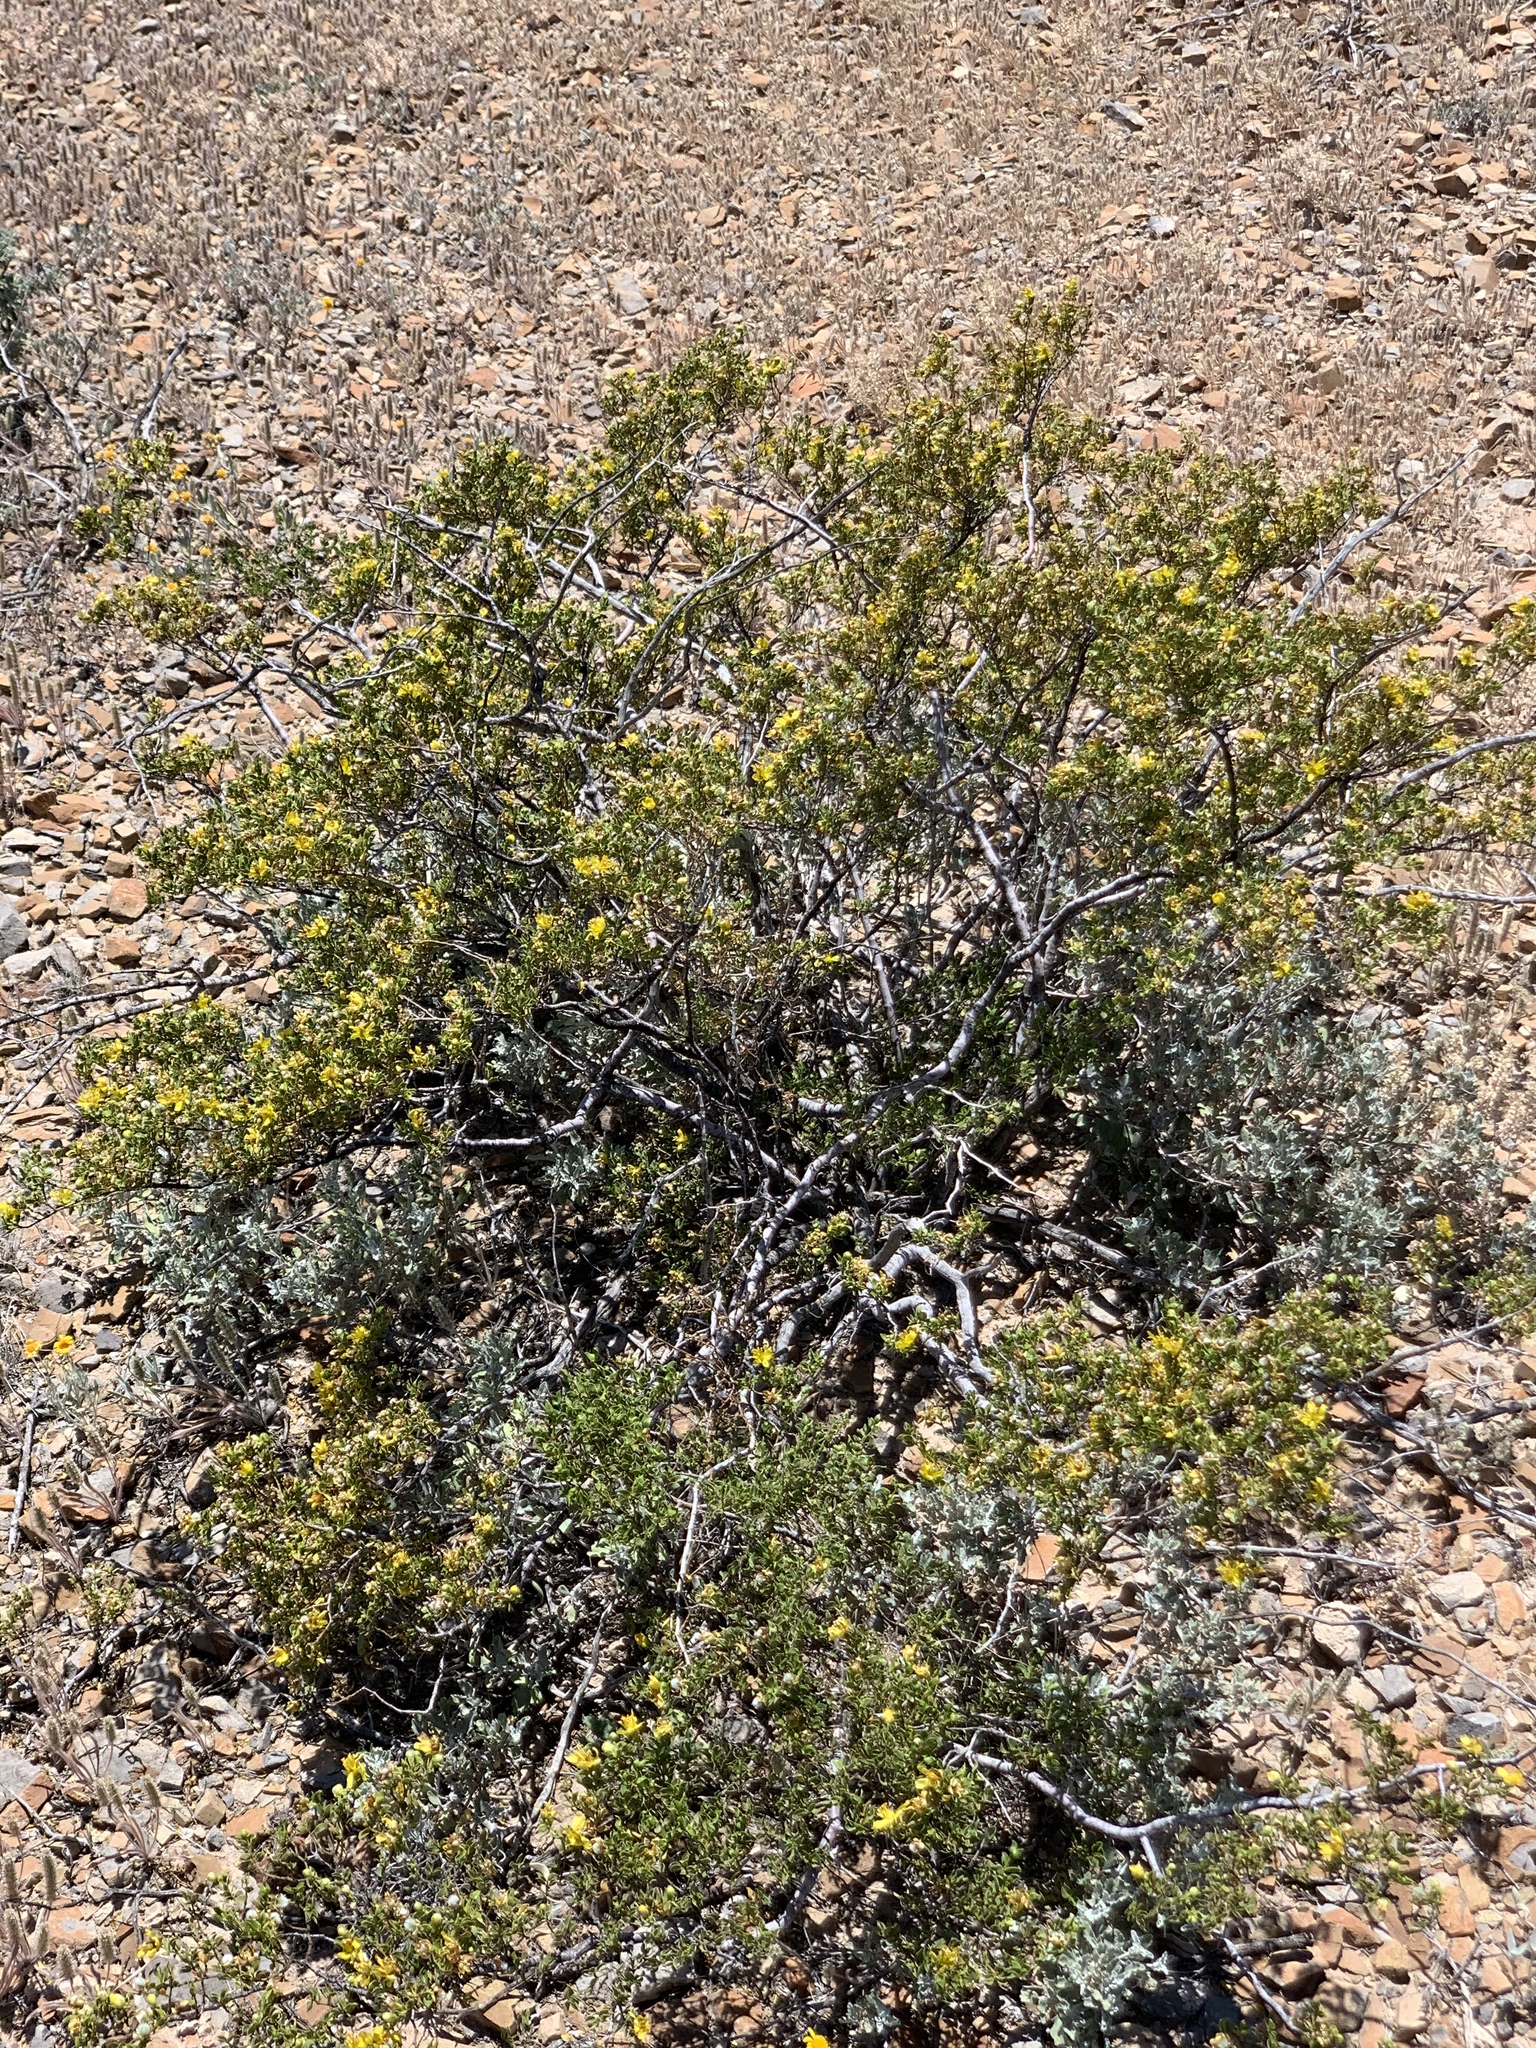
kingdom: Plantae
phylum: Tracheophyta
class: Magnoliopsida
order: Zygophyllales
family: Zygophyllaceae
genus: Larrea
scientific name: Larrea tridentata
